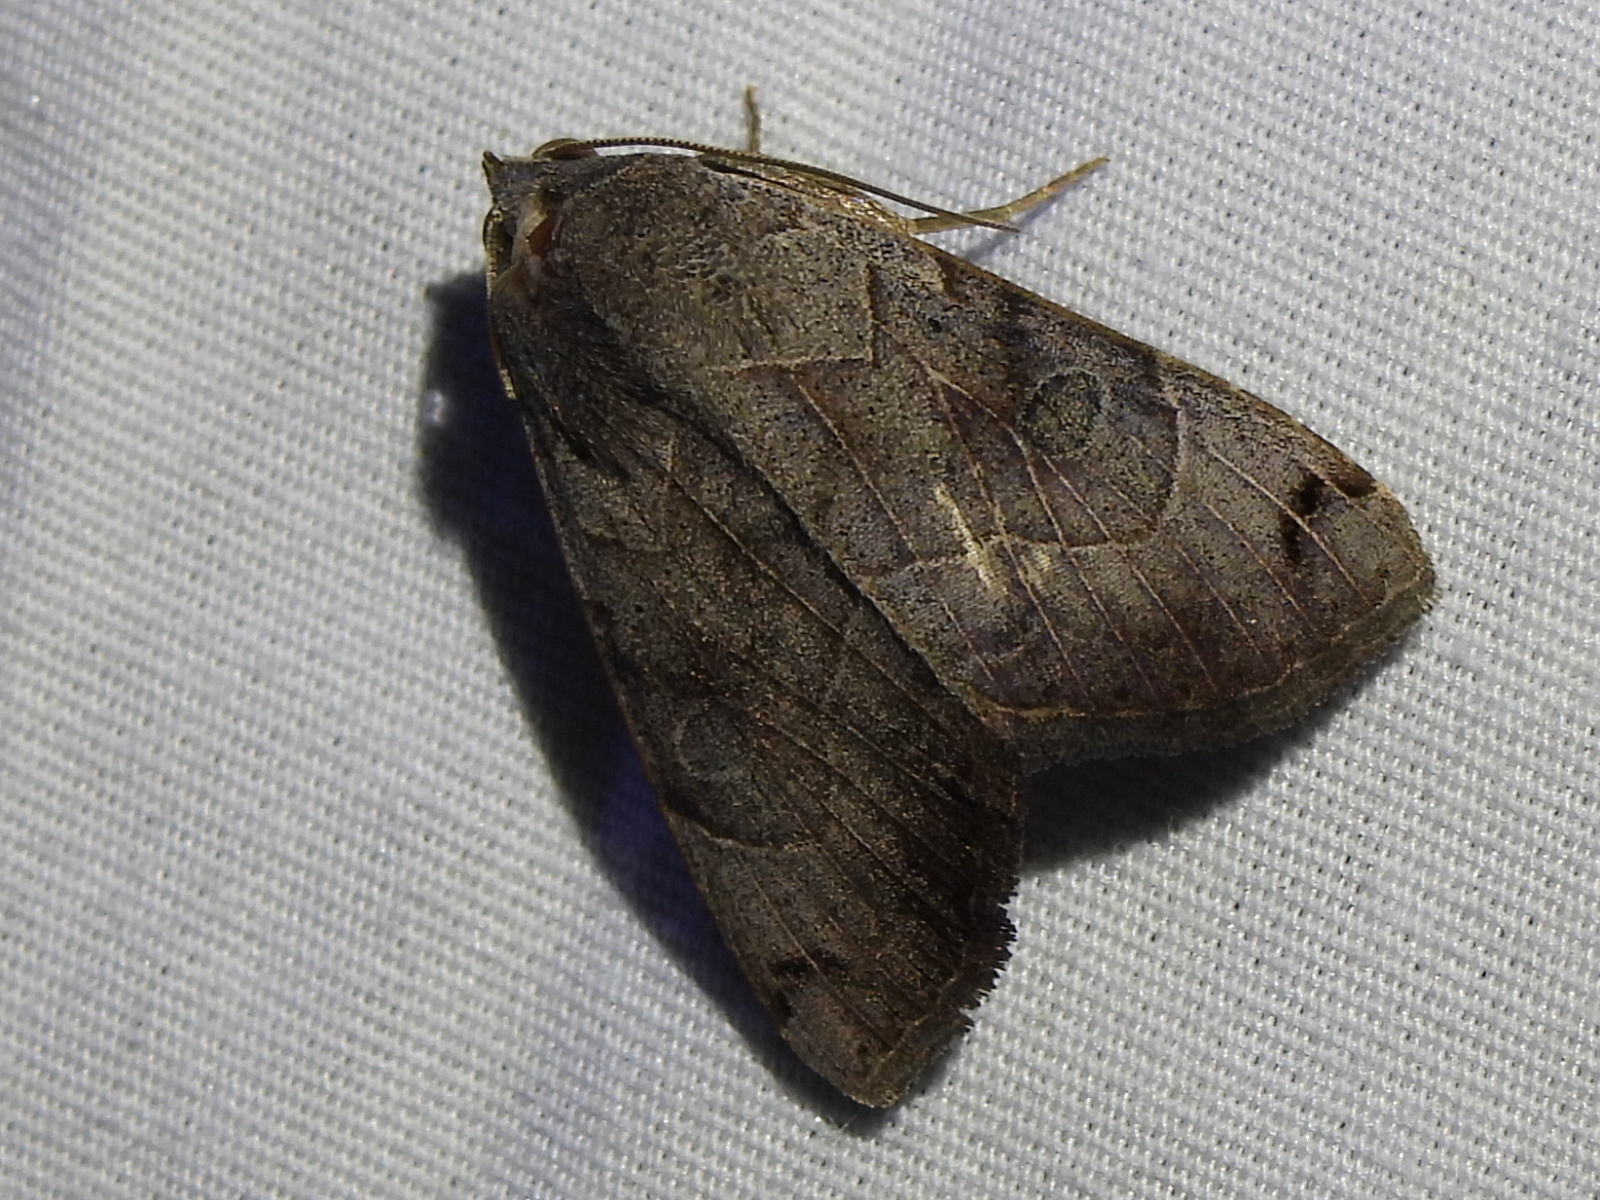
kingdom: Animalia
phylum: Arthropoda
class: Insecta
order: Lepidoptera
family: Erebidae
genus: Isogona
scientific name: Isogona scindens
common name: Owlet moth
